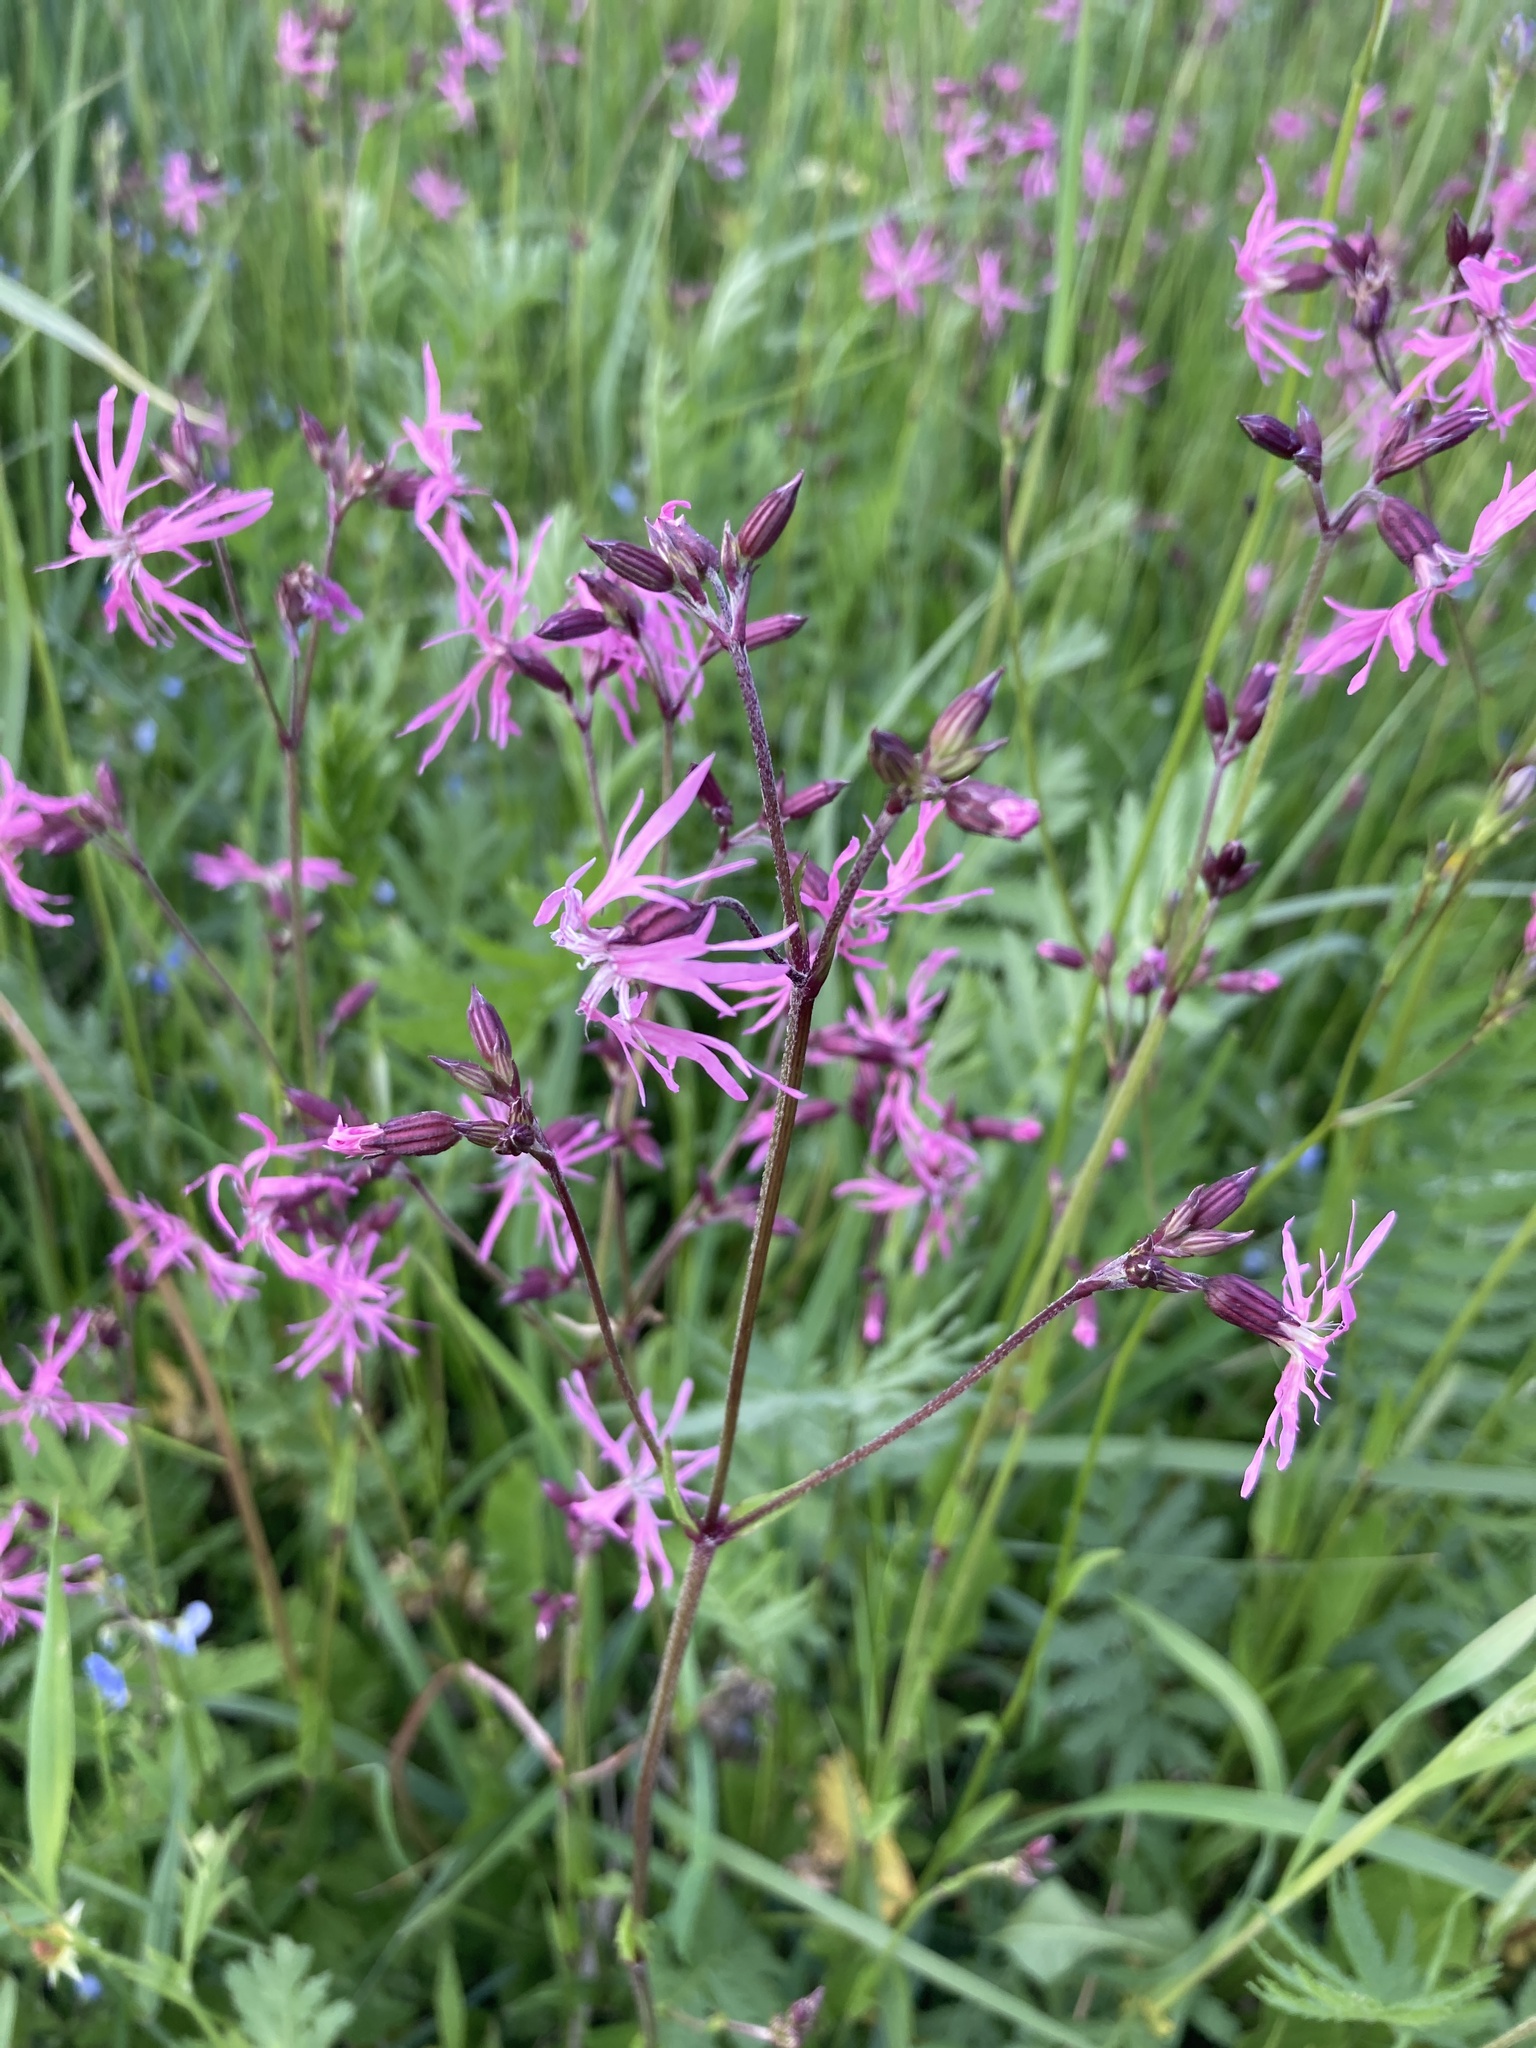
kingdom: Plantae
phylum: Tracheophyta
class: Magnoliopsida
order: Caryophyllales
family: Caryophyllaceae
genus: Silene
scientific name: Silene flos-cuculi
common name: Ragged-robin
